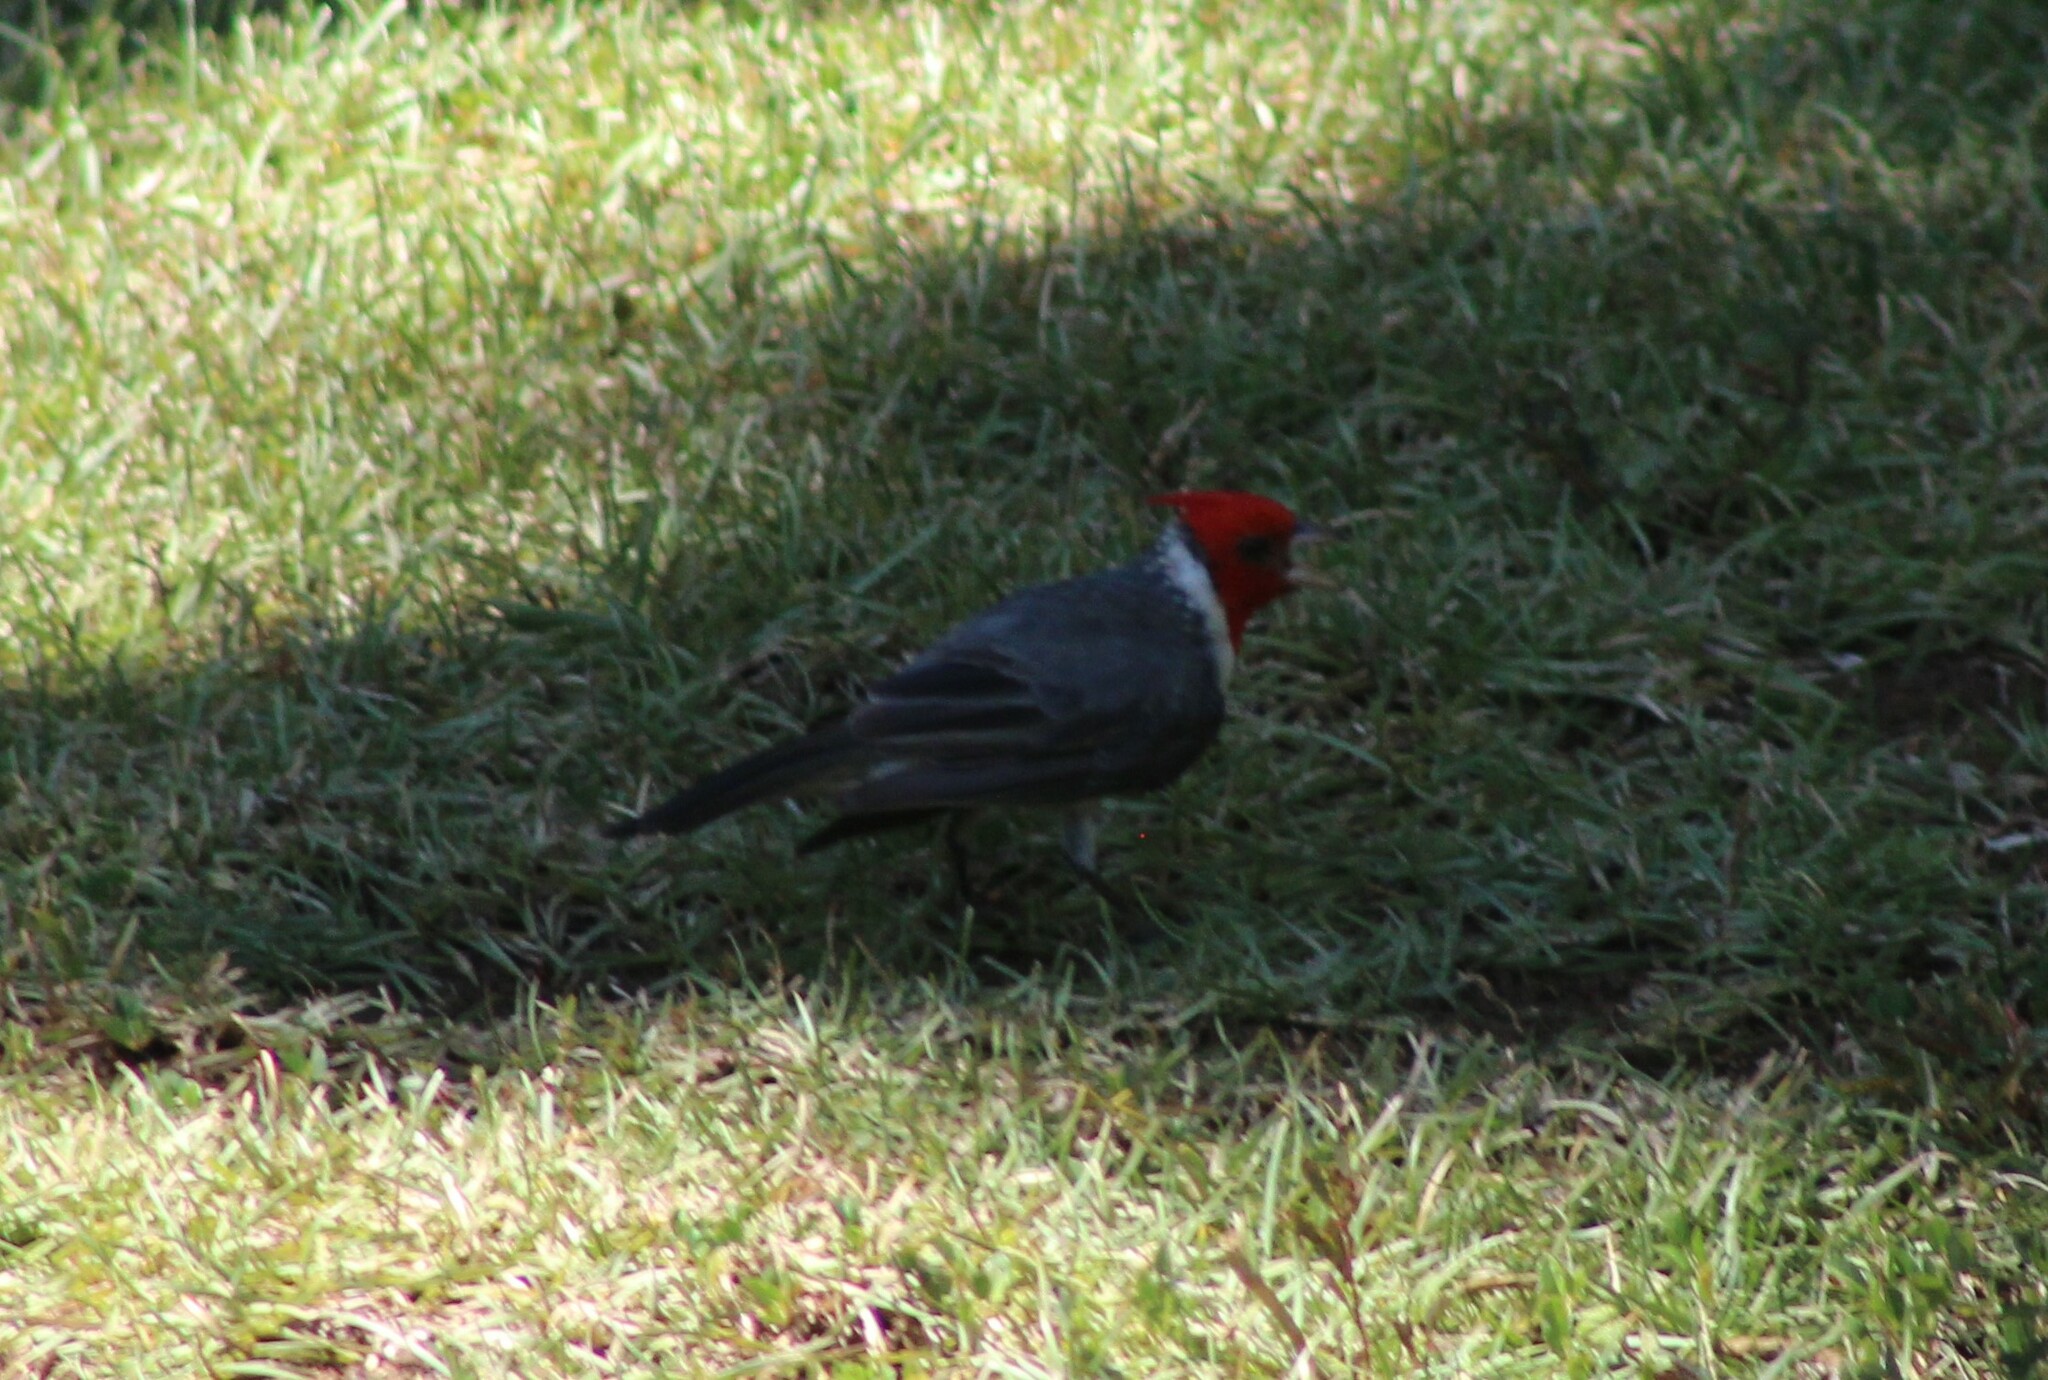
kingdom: Animalia
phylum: Chordata
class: Aves
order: Passeriformes
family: Thraupidae
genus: Paroaria
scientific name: Paroaria coronata
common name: Red-crested cardinal
